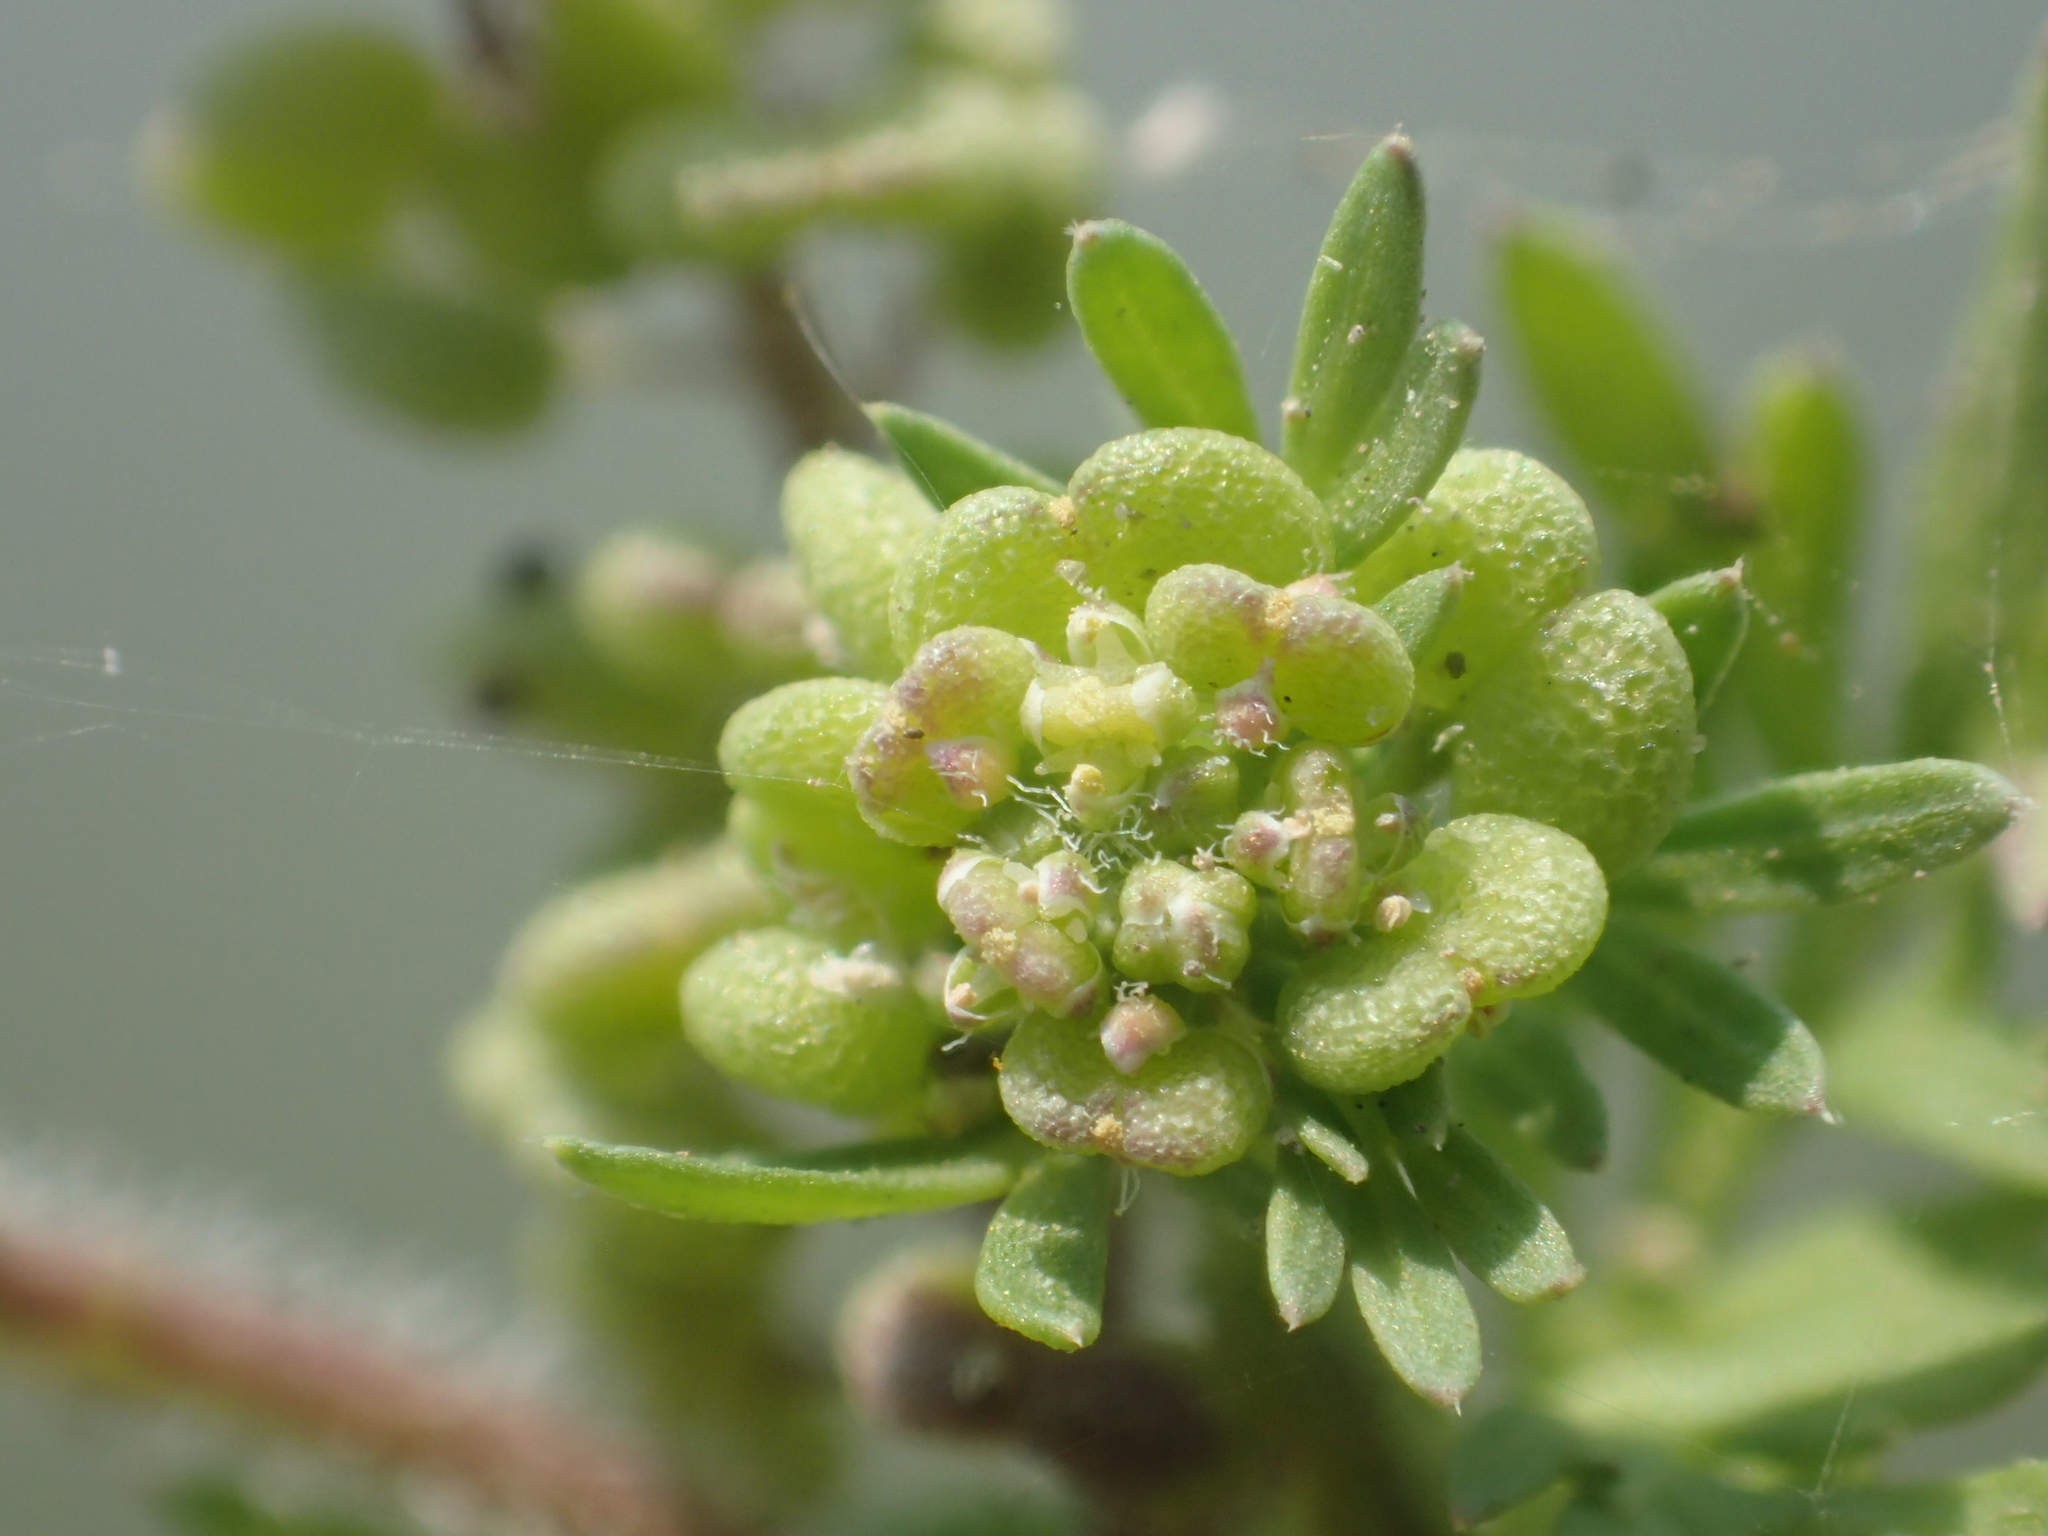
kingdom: Plantae
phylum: Tracheophyta
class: Magnoliopsida
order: Brassicales
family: Brassicaceae
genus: Lepidium
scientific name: Lepidium didymum
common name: Lesser swinecress
